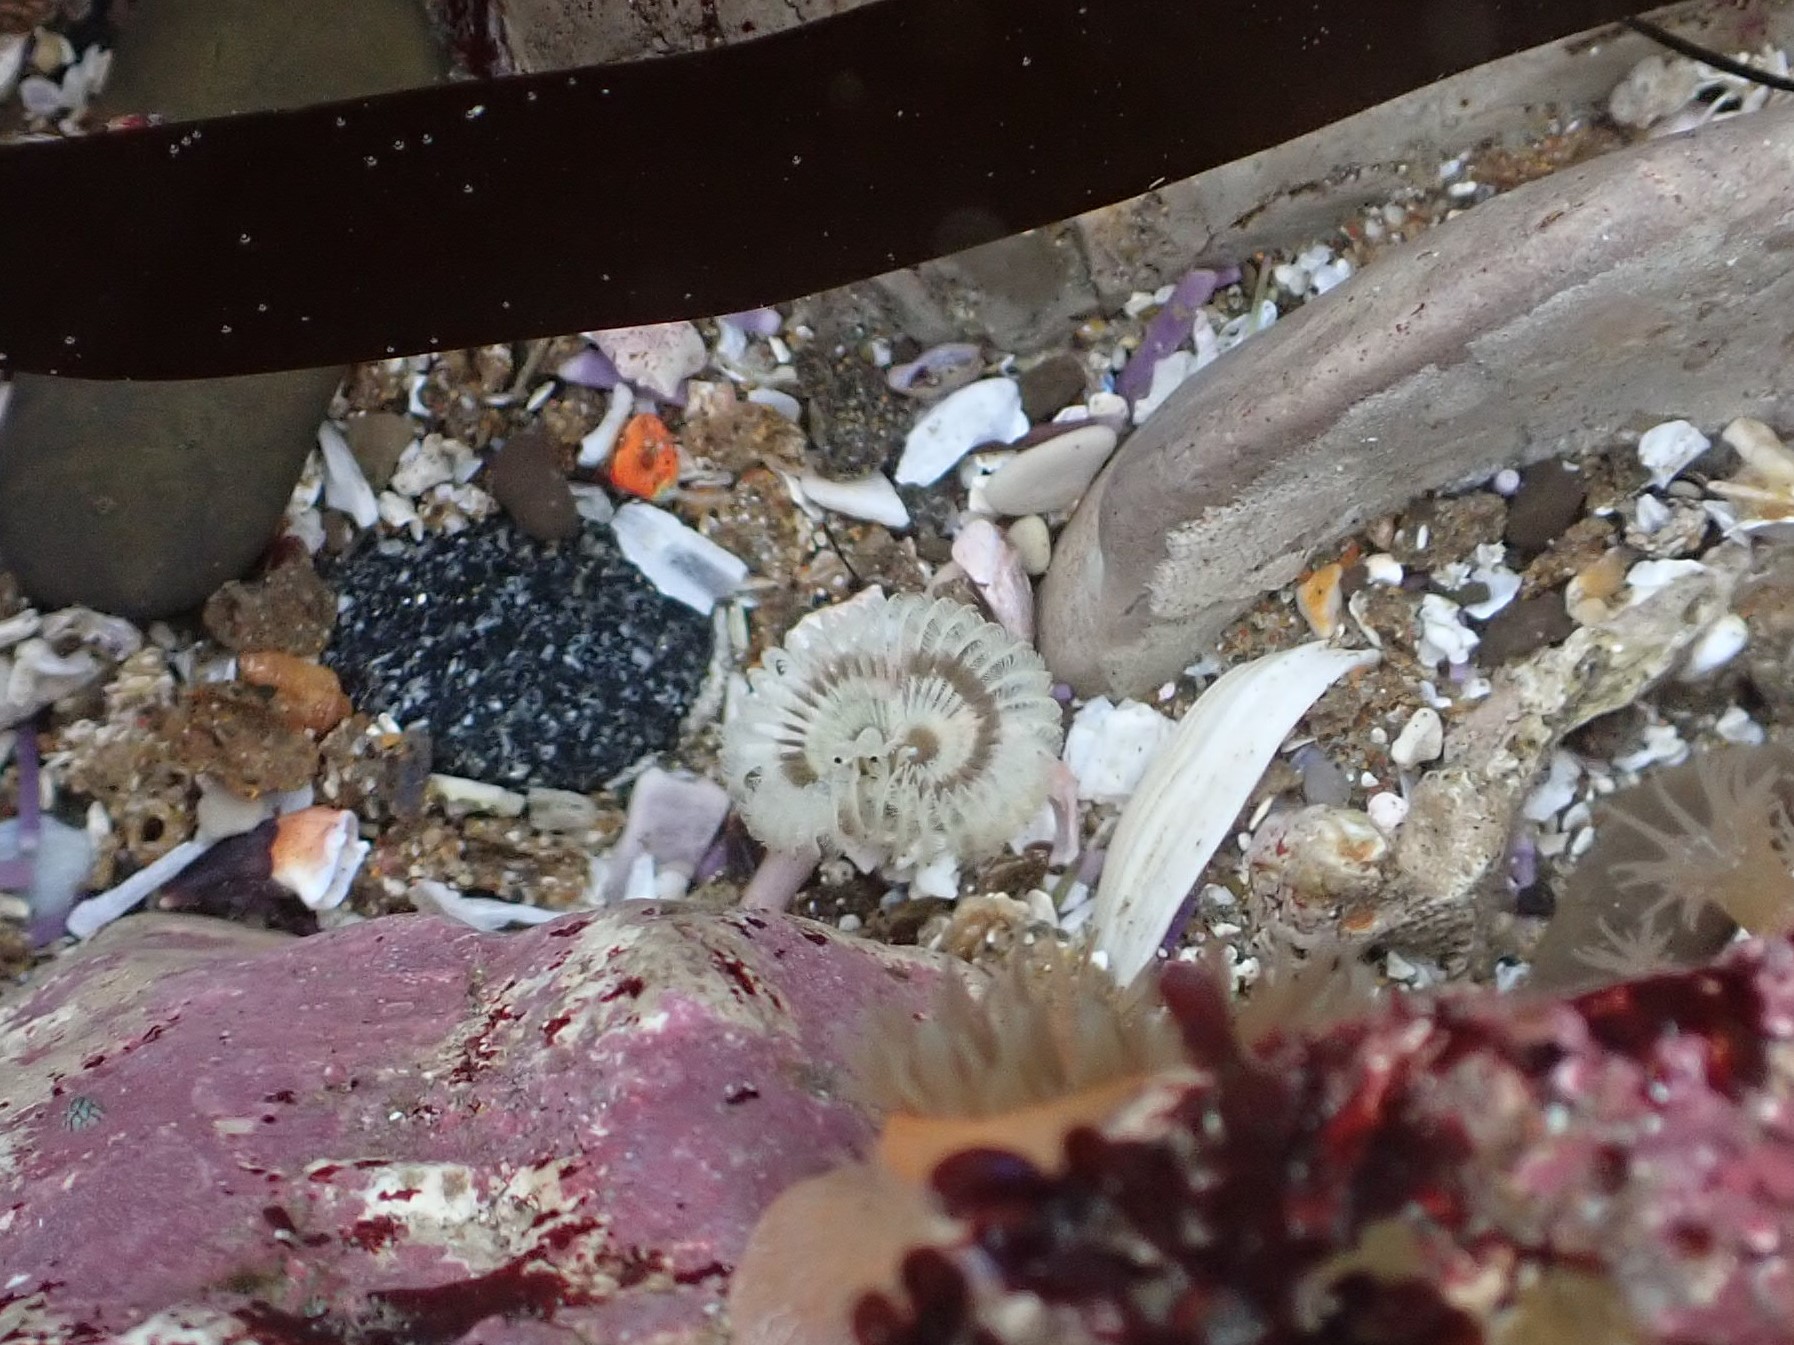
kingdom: Animalia
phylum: Annelida
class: Polychaeta
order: Sabellida
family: Sabellidae
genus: Acromegalomma
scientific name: Acromegalomma splendidum
